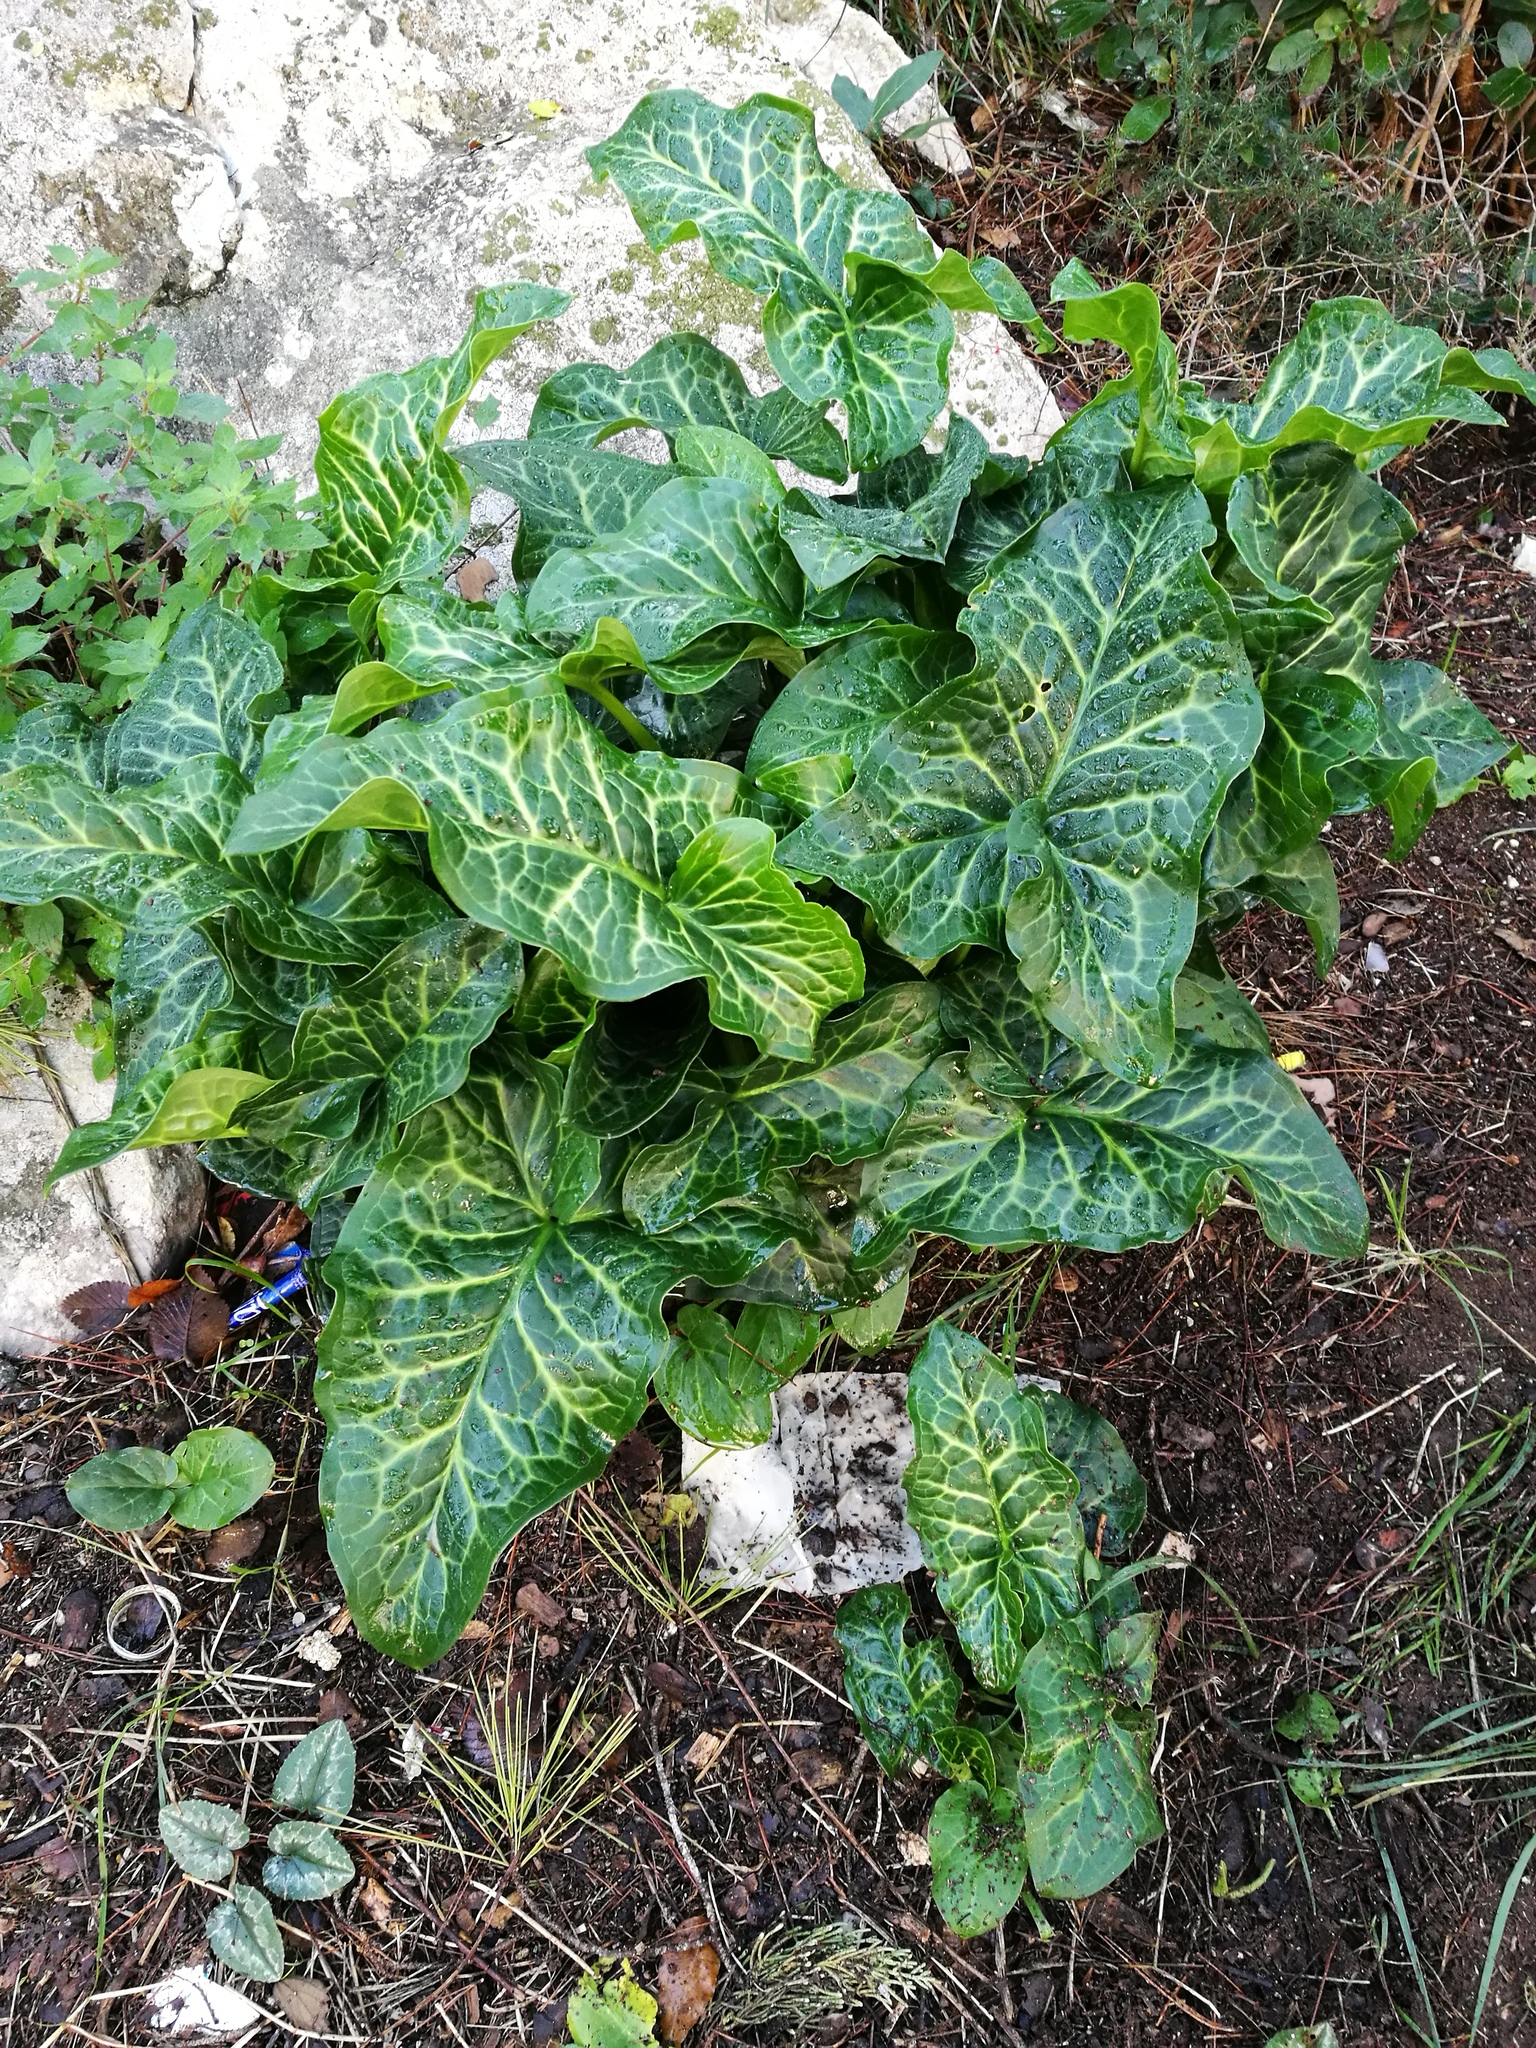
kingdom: Plantae
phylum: Tracheophyta
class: Liliopsida
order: Alismatales
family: Araceae
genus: Arum
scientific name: Arum italicum
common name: Italian lords-and-ladies
